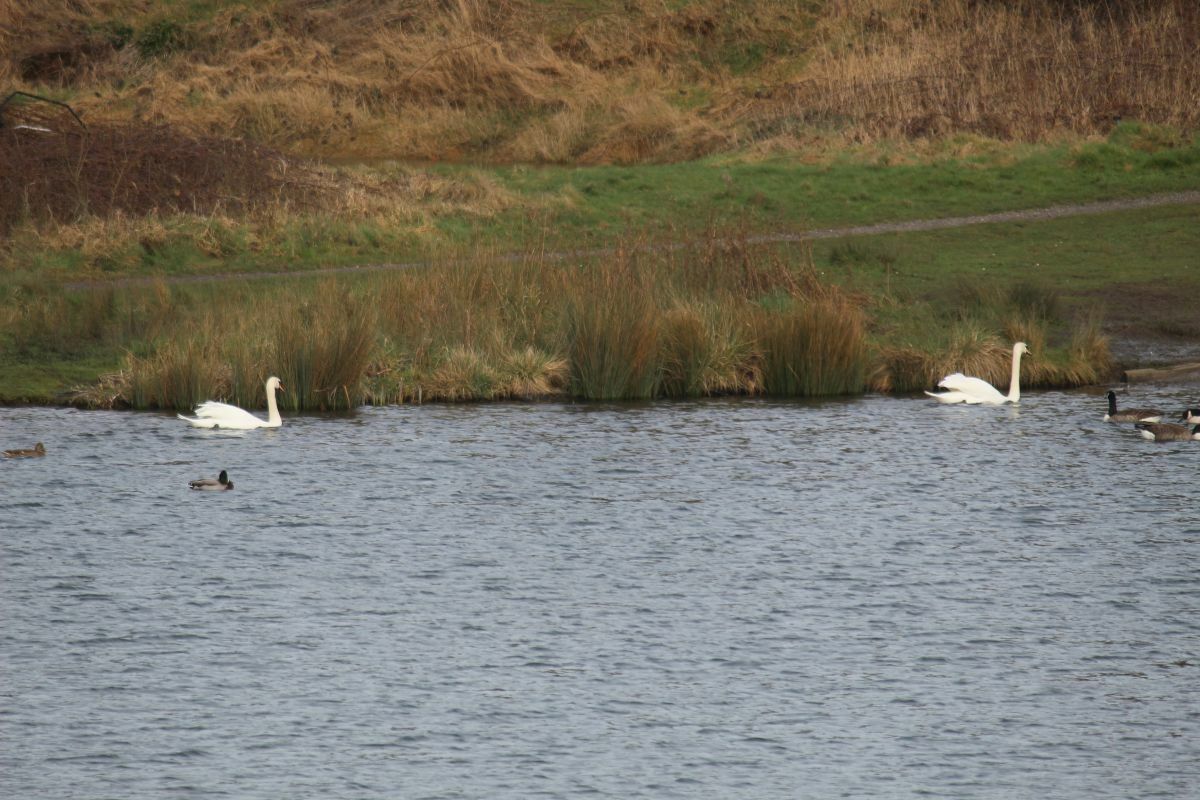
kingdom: Animalia
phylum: Chordata
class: Aves
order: Anseriformes
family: Anatidae
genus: Cygnus
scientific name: Cygnus olor
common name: Mute swan
